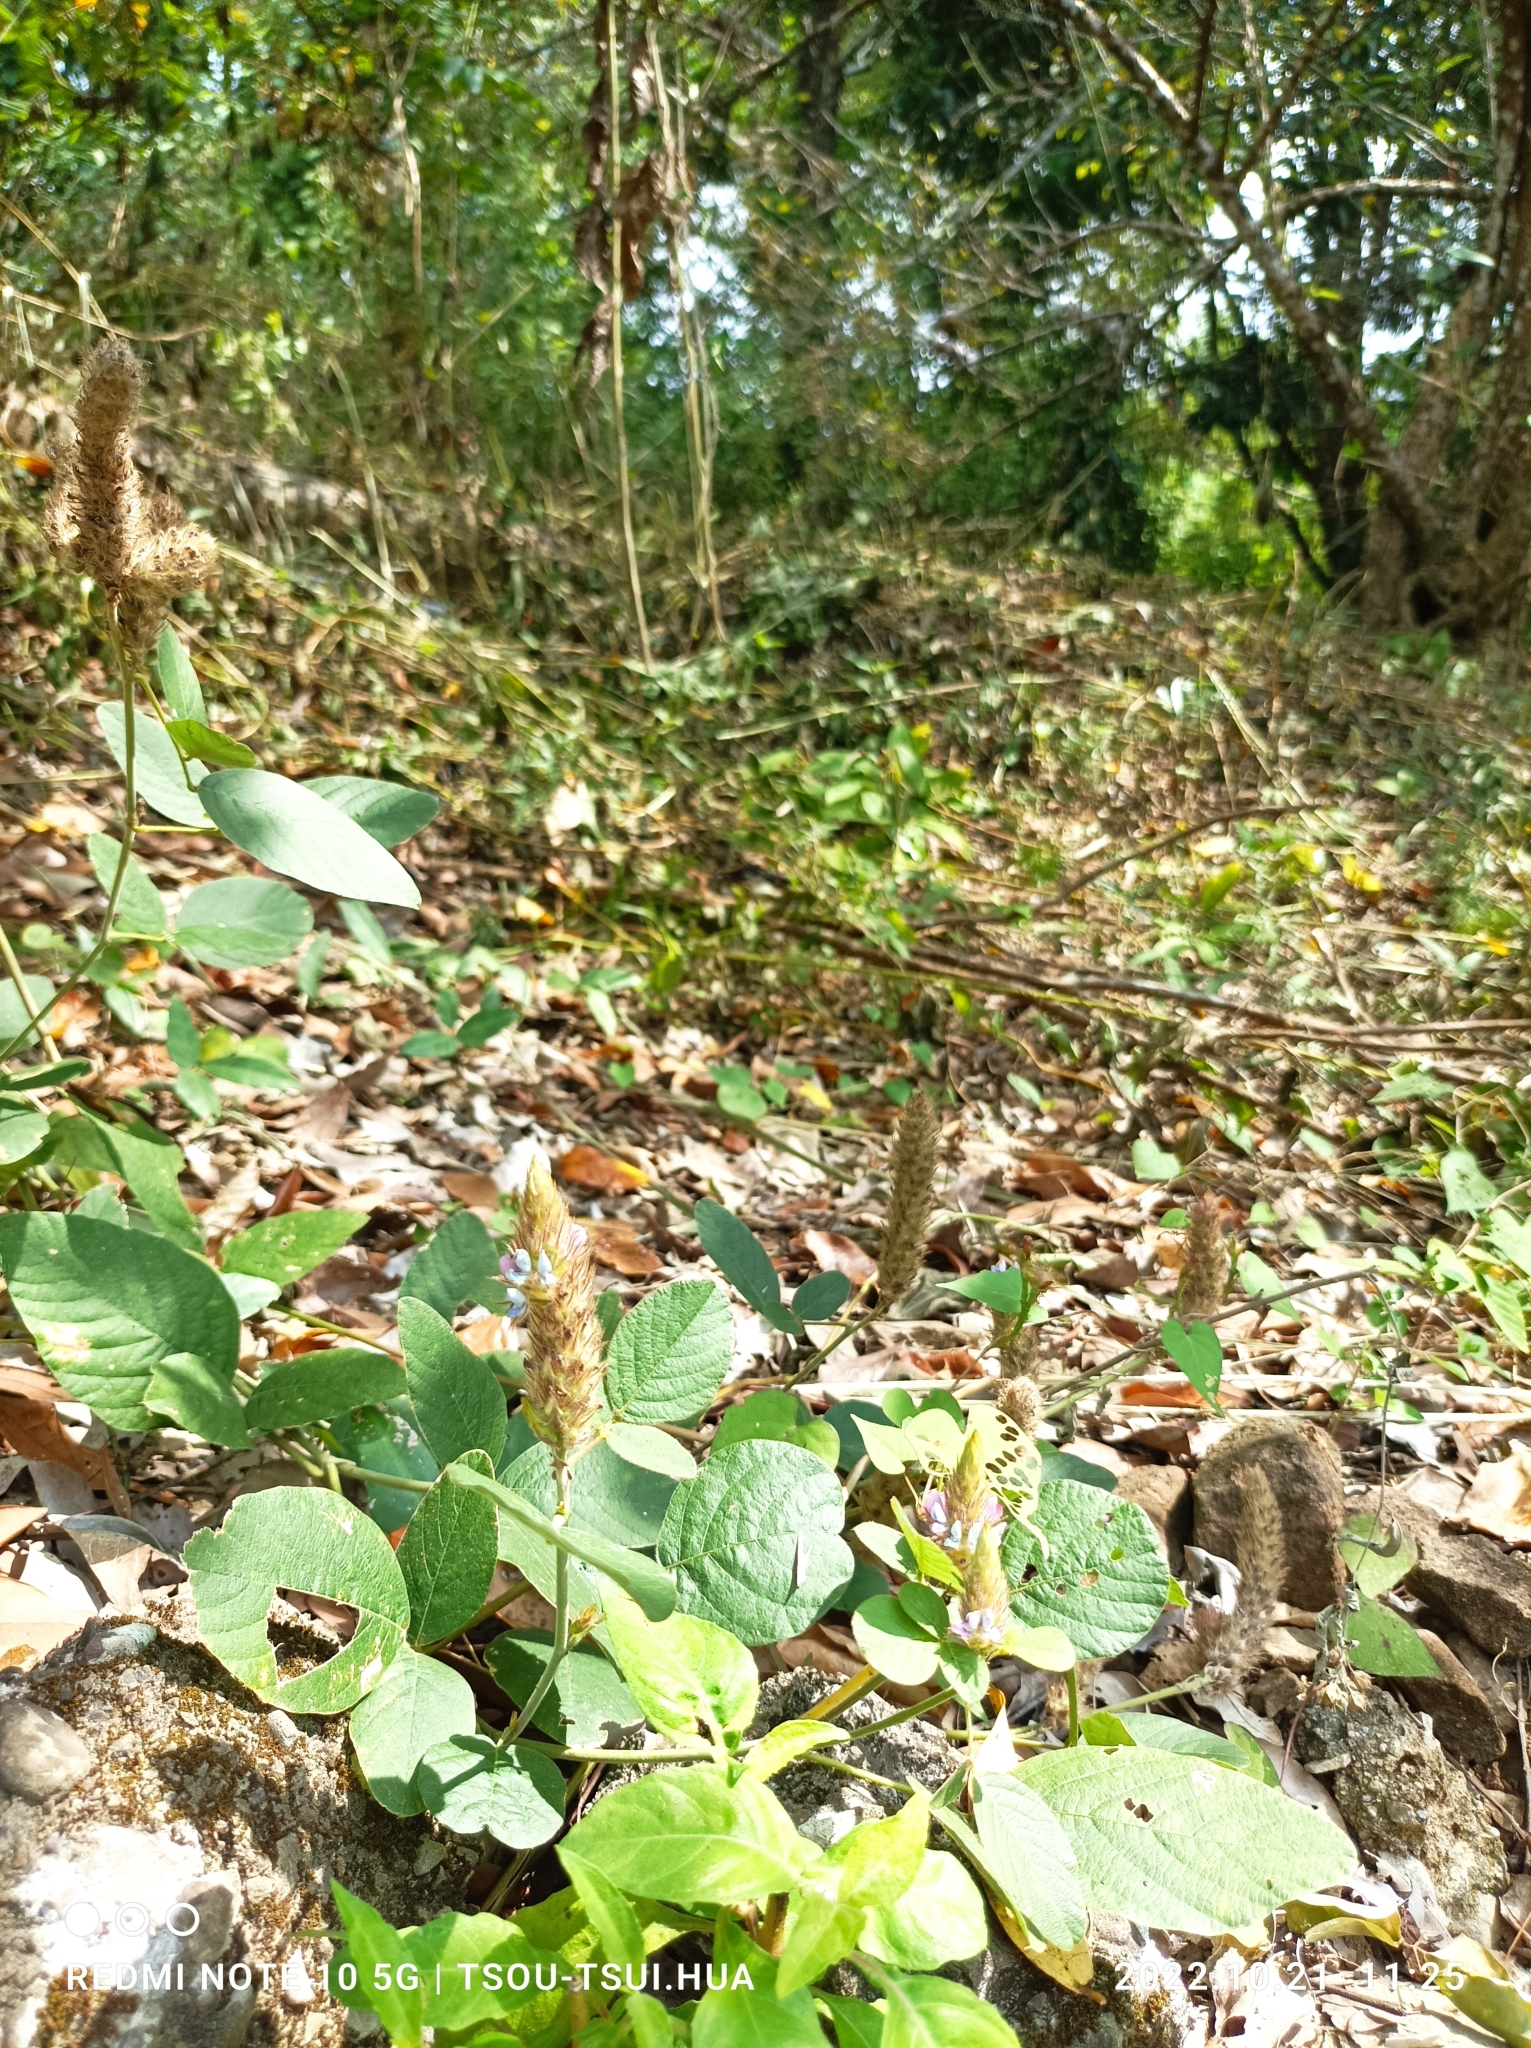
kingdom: Plantae
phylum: Tracheophyta
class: Magnoliopsida
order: Fabales
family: Fabaceae
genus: Uraria
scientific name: Uraria lagopodioides
